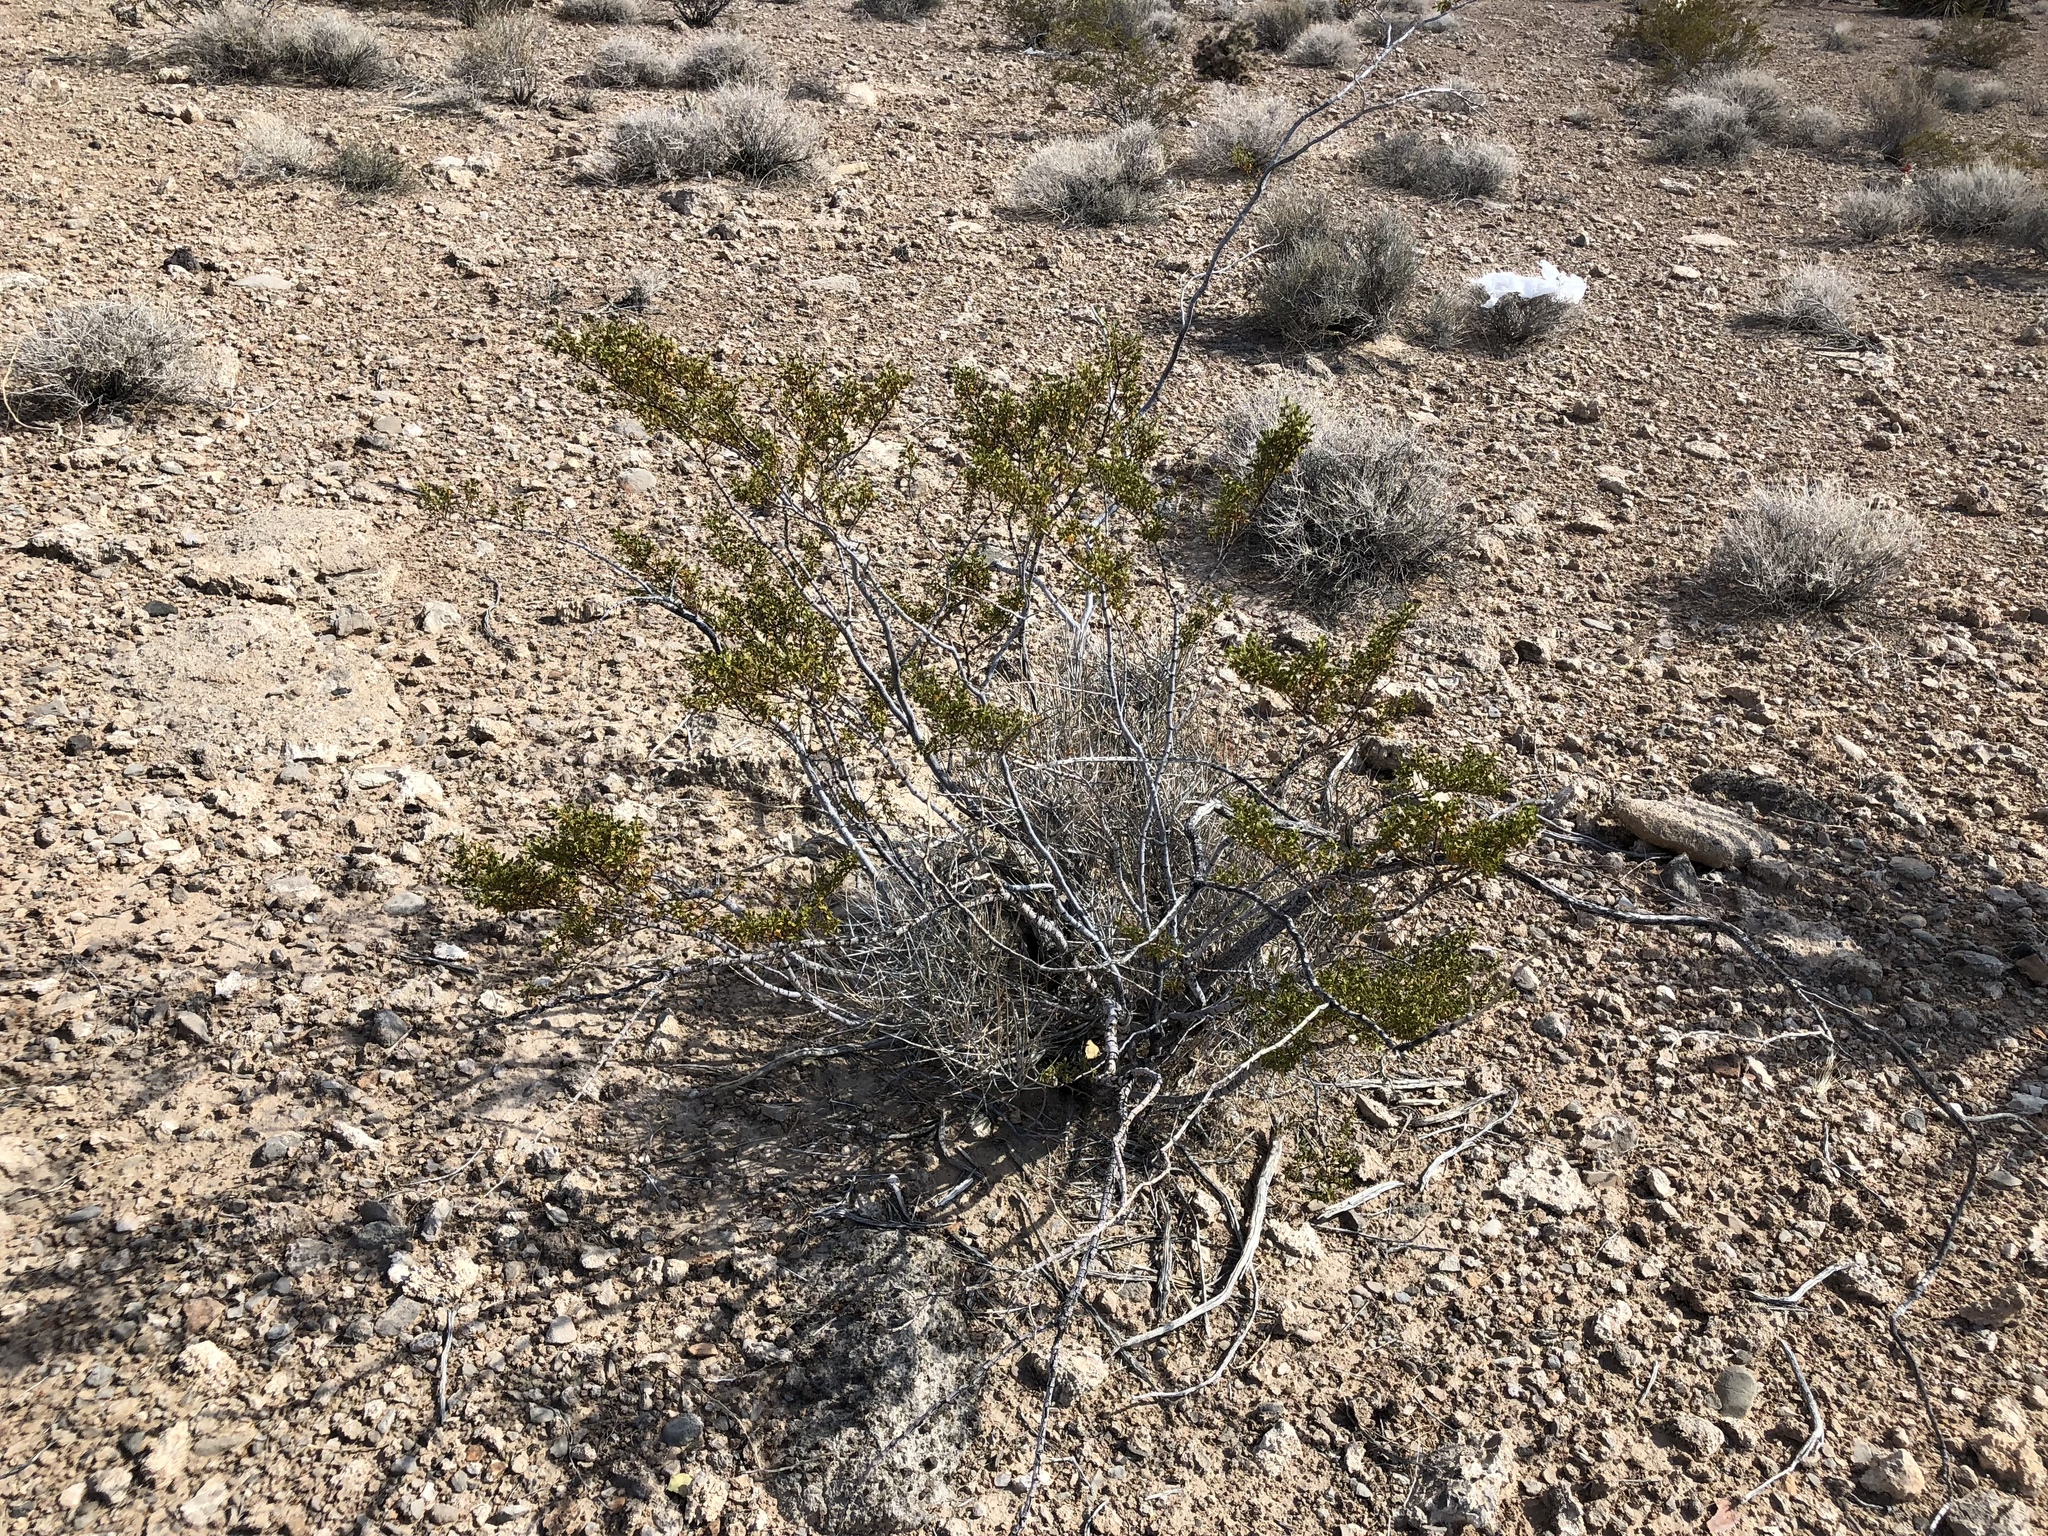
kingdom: Plantae
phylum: Tracheophyta
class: Magnoliopsida
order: Zygophyllales
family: Zygophyllaceae
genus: Larrea
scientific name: Larrea tridentata
